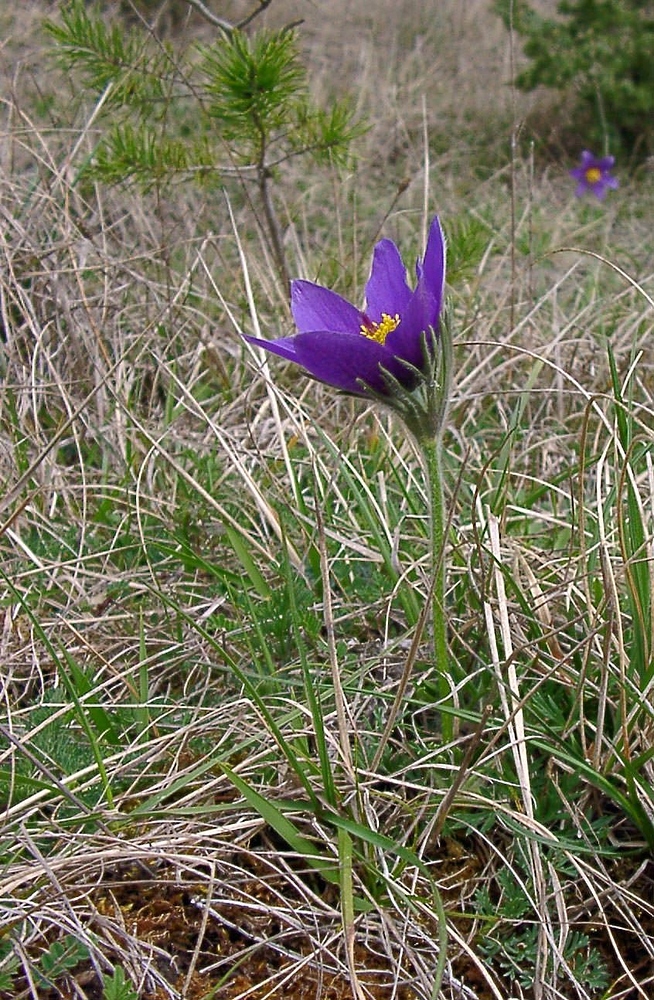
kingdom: Plantae
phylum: Tracheophyta
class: Magnoliopsida
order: Ranunculales
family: Ranunculaceae
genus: Pulsatilla
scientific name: Pulsatilla vulgaris
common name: Pasqueflower
